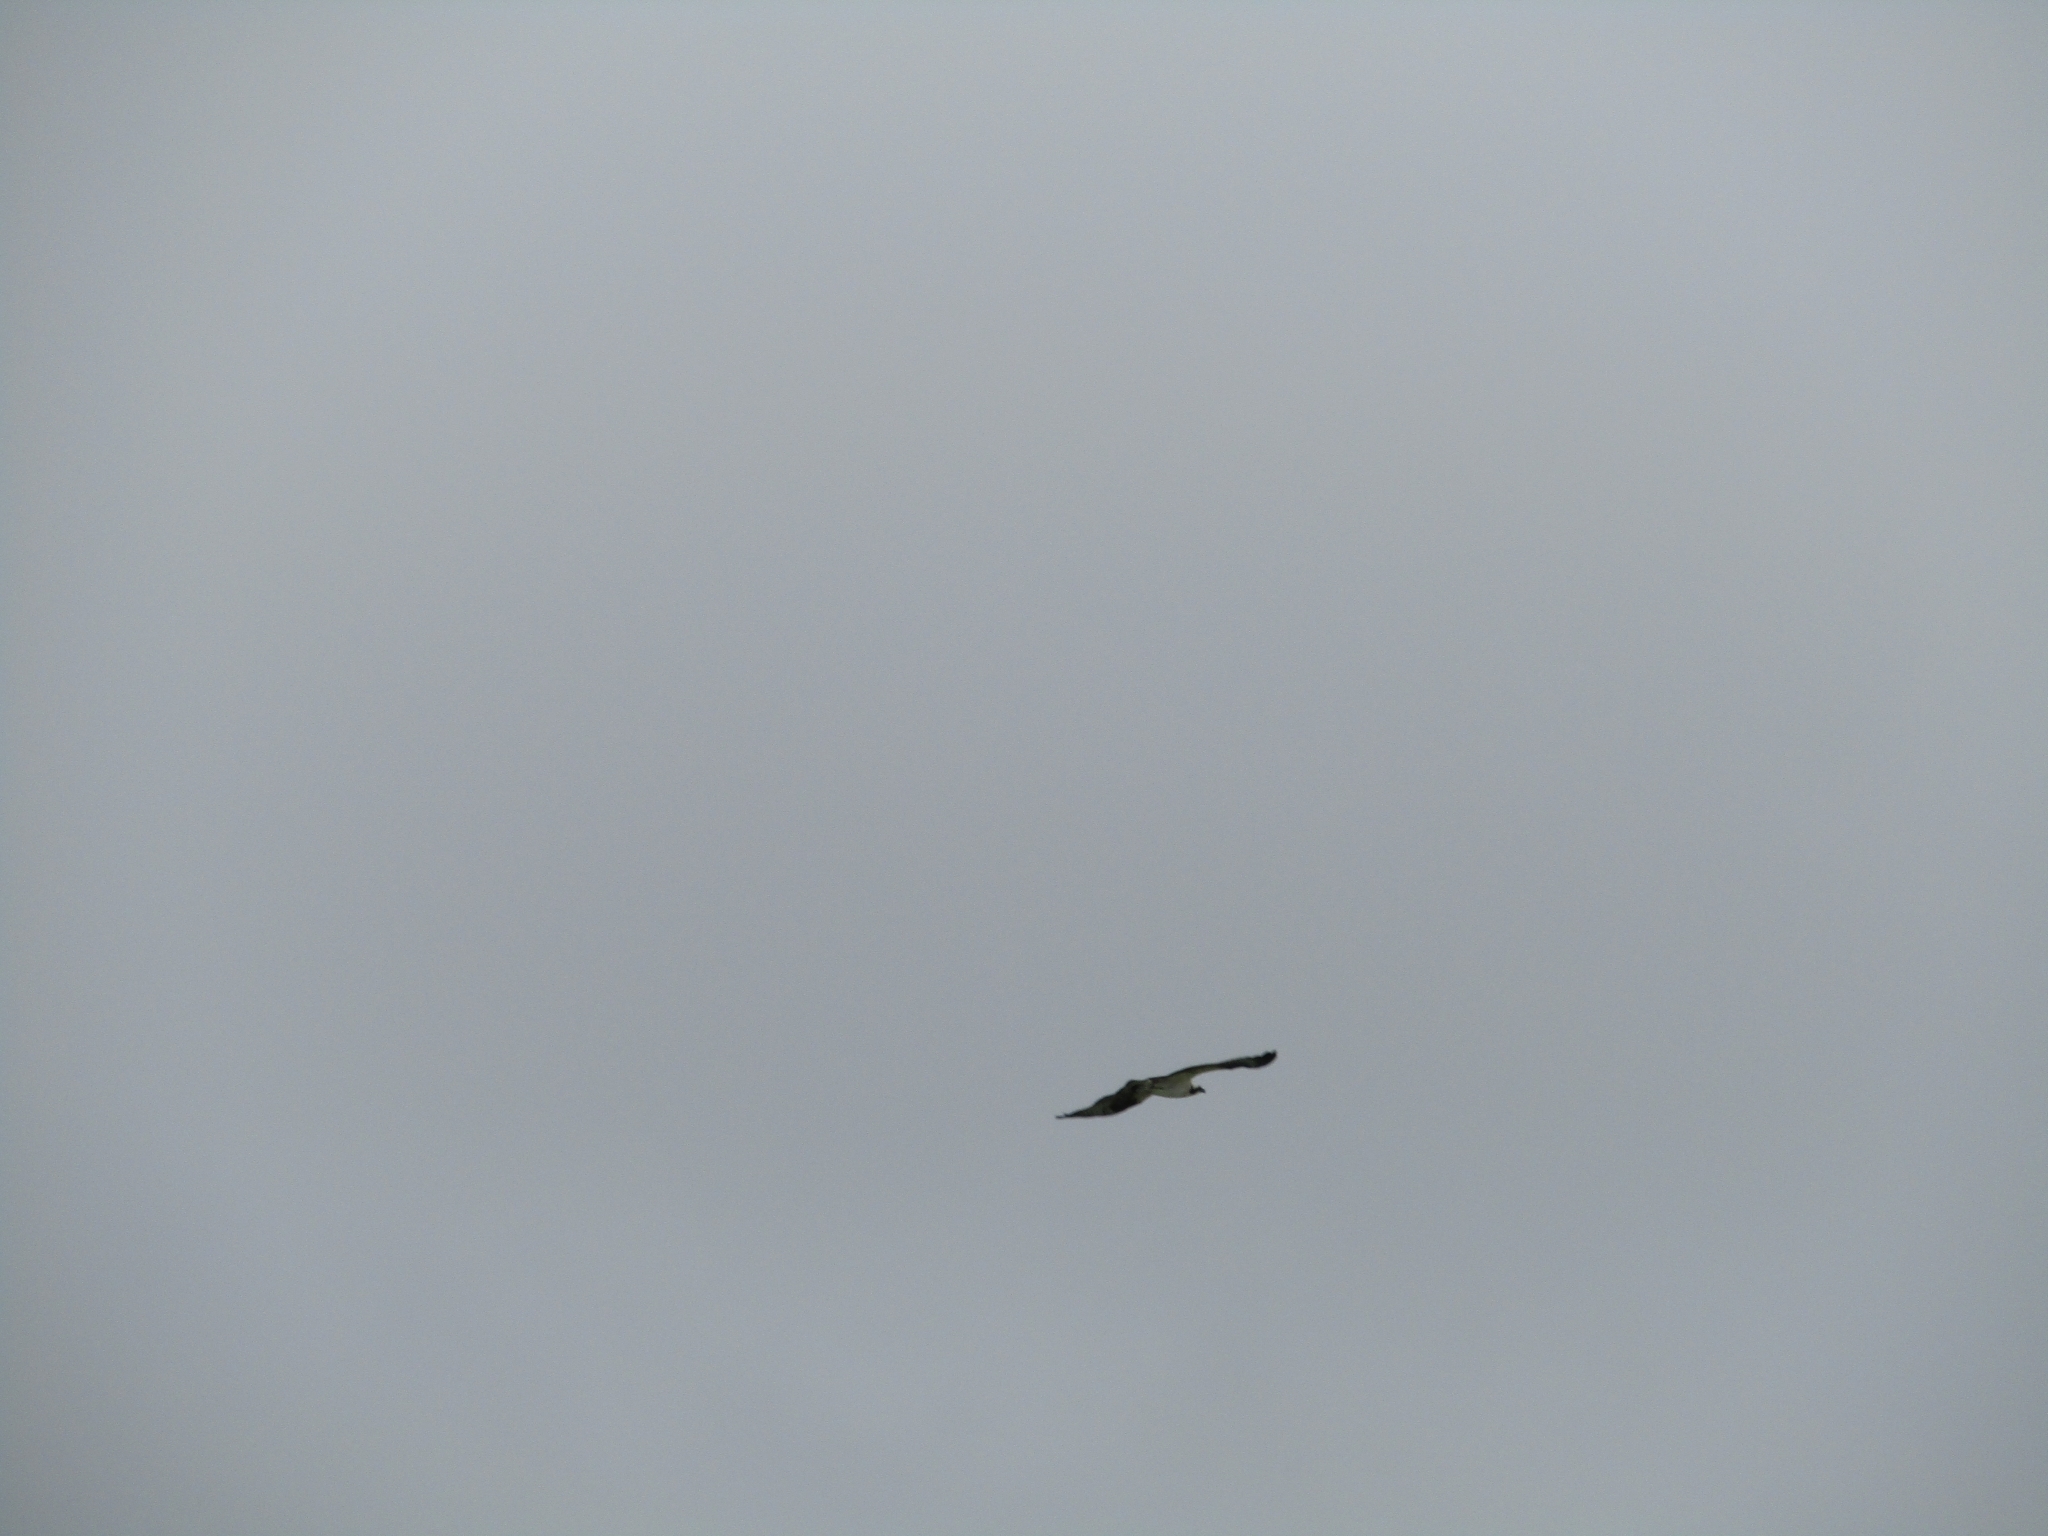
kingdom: Animalia
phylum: Chordata
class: Aves
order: Accipitriformes
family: Pandionidae
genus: Pandion
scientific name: Pandion haliaetus
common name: Osprey
